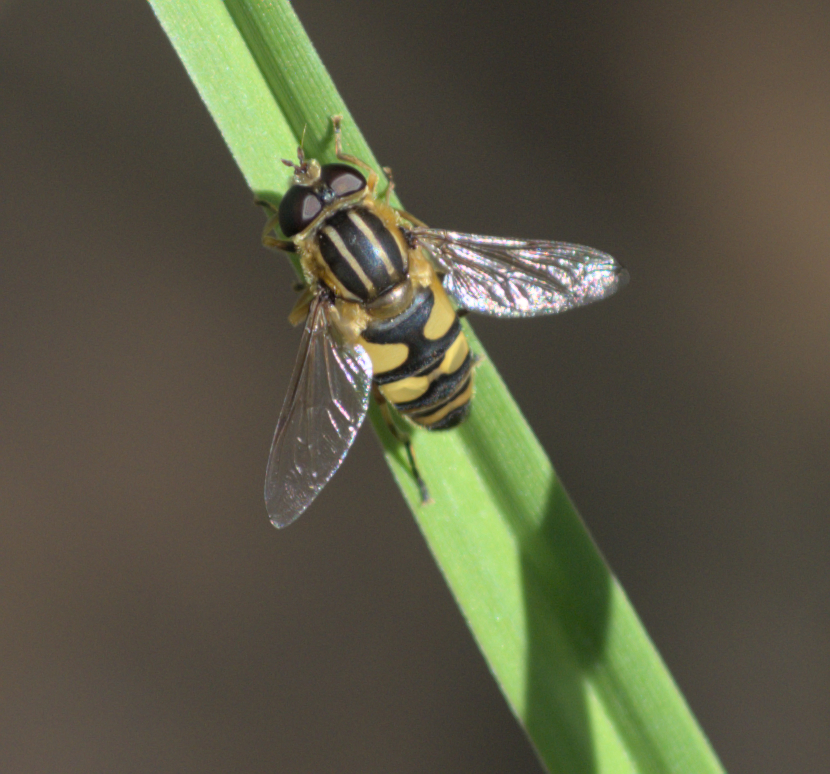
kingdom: Animalia
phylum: Arthropoda
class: Insecta
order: Diptera
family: Syrphidae
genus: Helophilus
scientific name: Helophilus fasciatus
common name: Narrow-headed marsh fly
